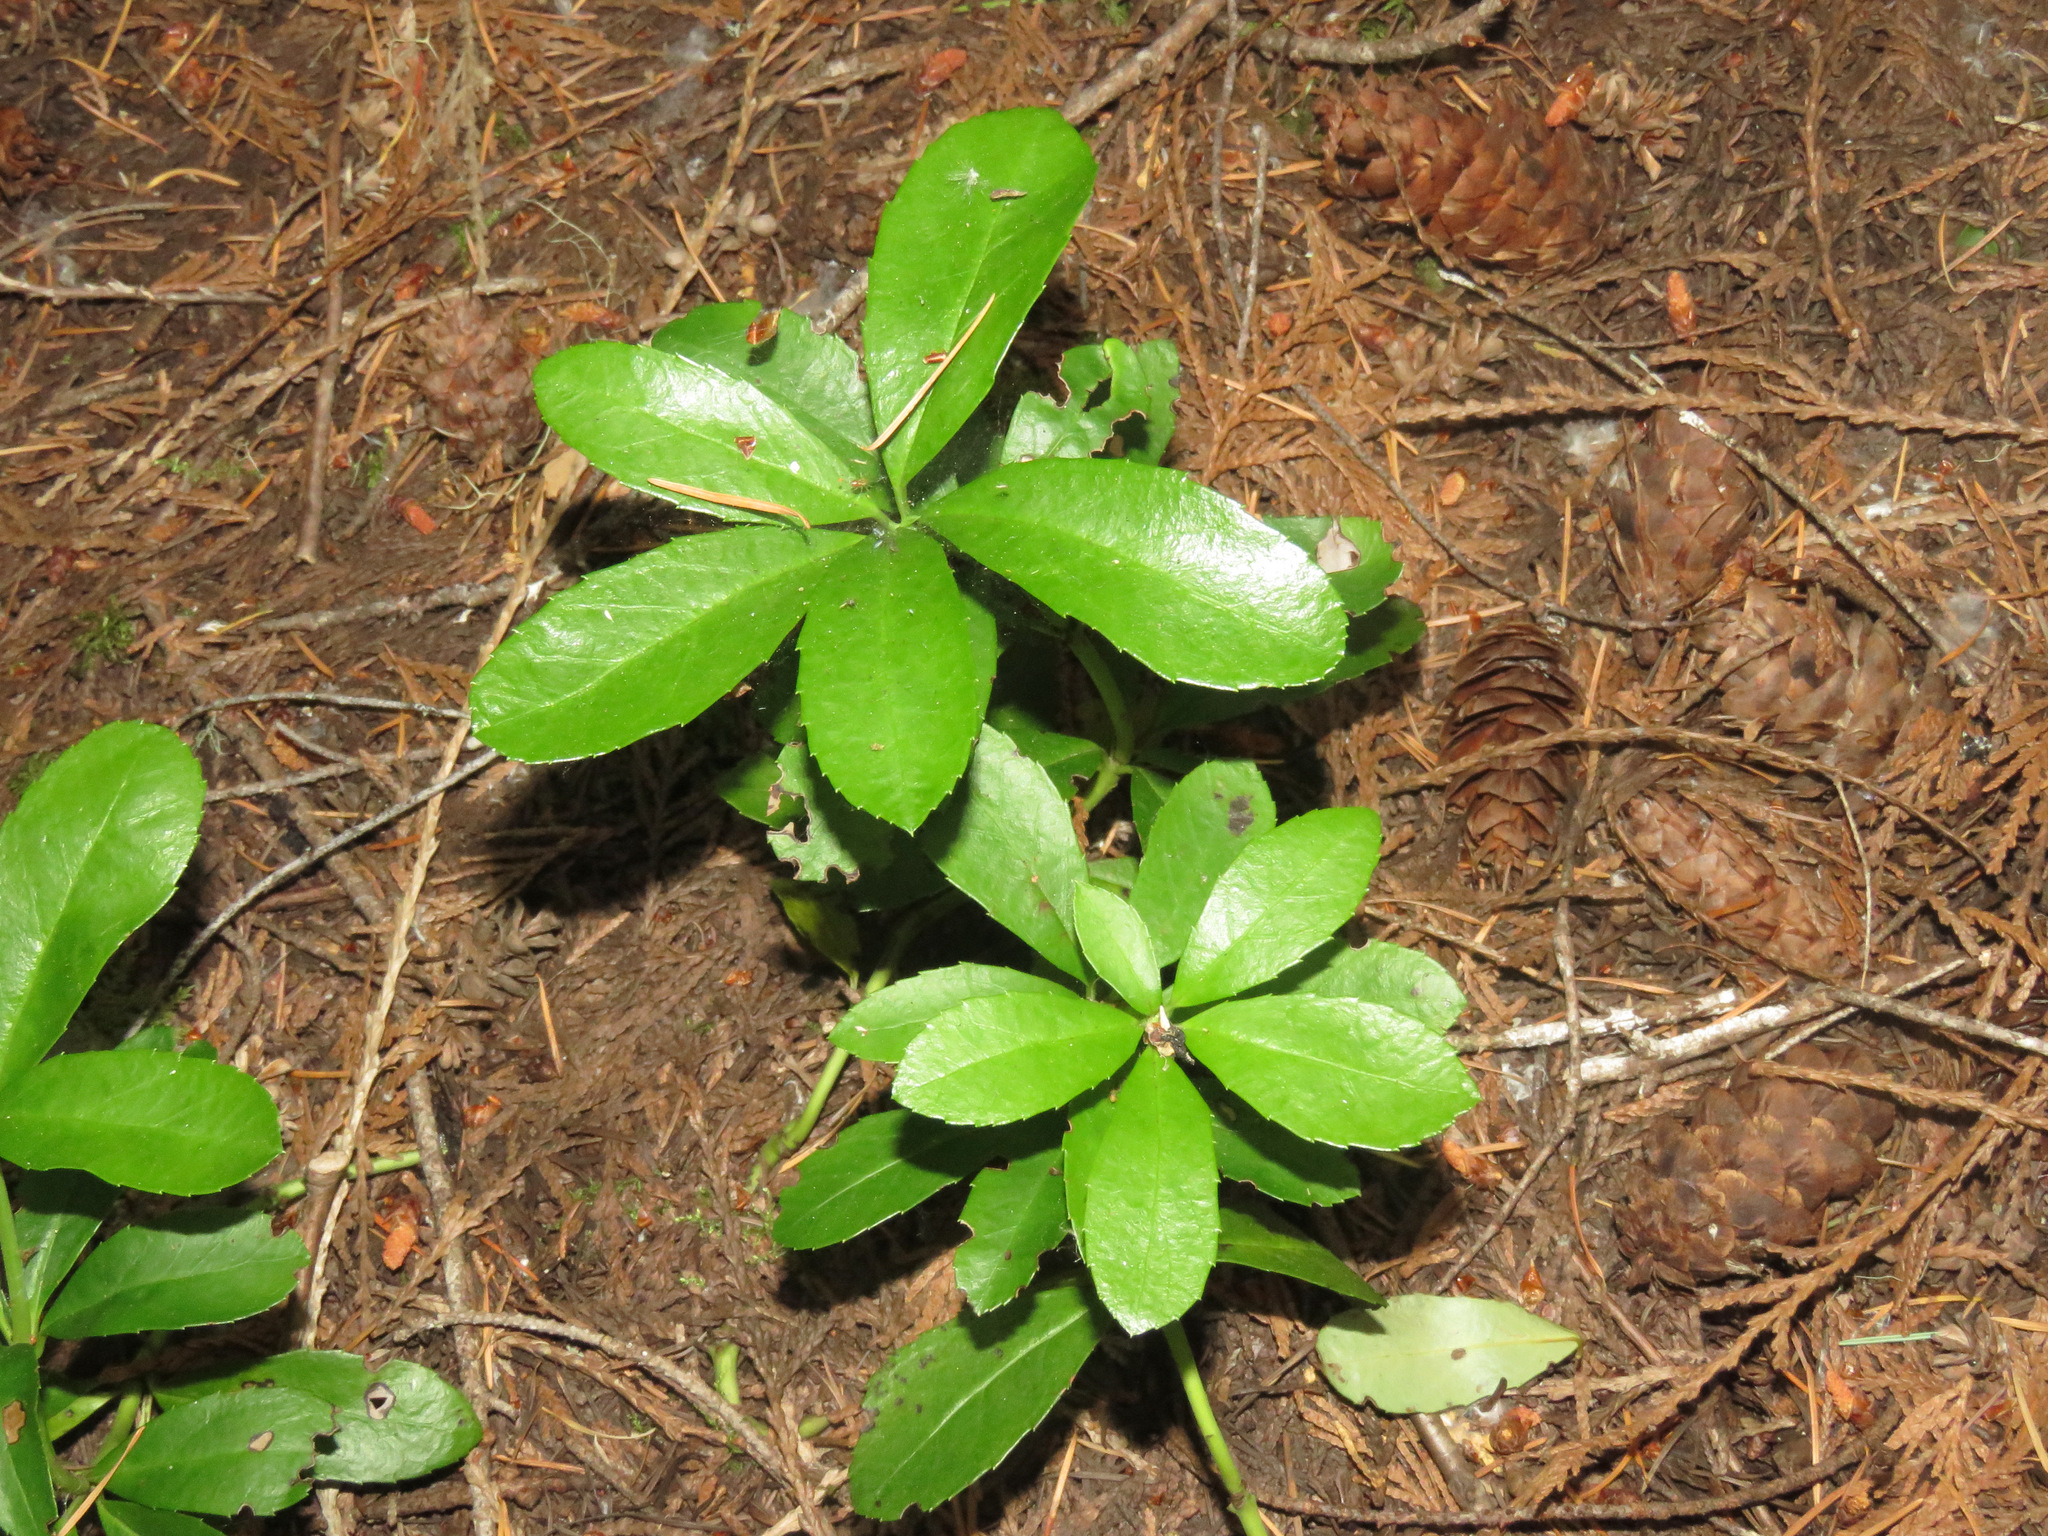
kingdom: Plantae
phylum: Tracheophyta
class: Magnoliopsida
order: Ericales
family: Ericaceae
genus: Chimaphila
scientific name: Chimaphila umbellata
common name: Pipsissewa
